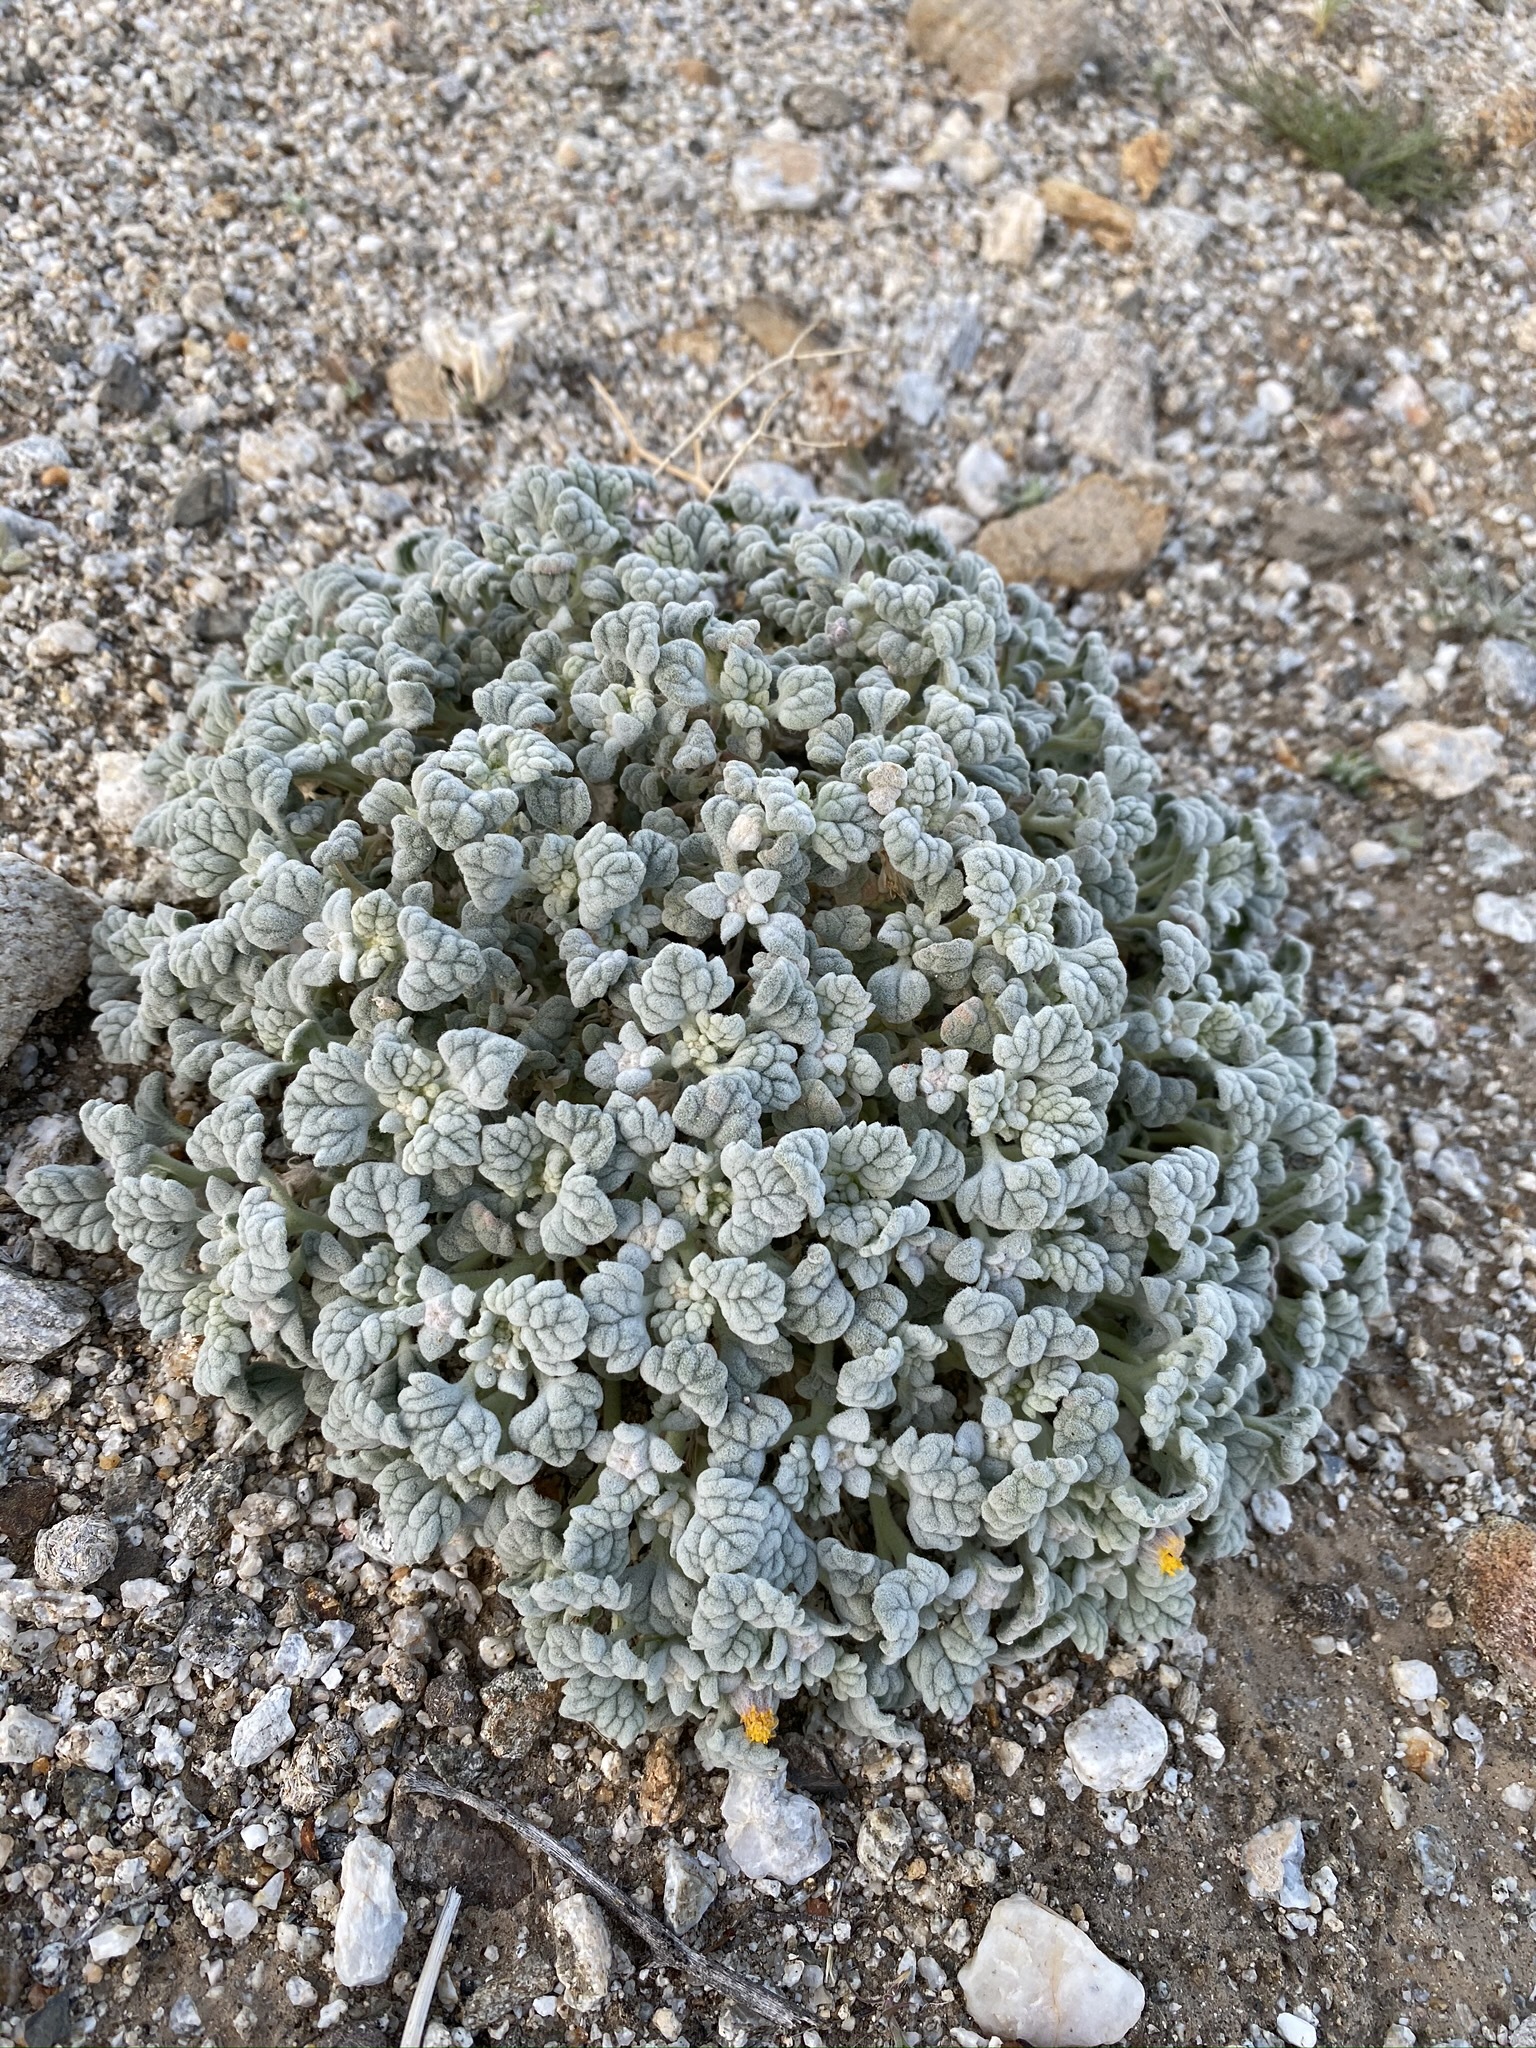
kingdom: Plantae
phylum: Tracheophyta
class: Magnoliopsida
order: Asterales
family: Asteraceae
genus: Psathyrotes
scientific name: Psathyrotes ramosissima
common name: Turtleback
